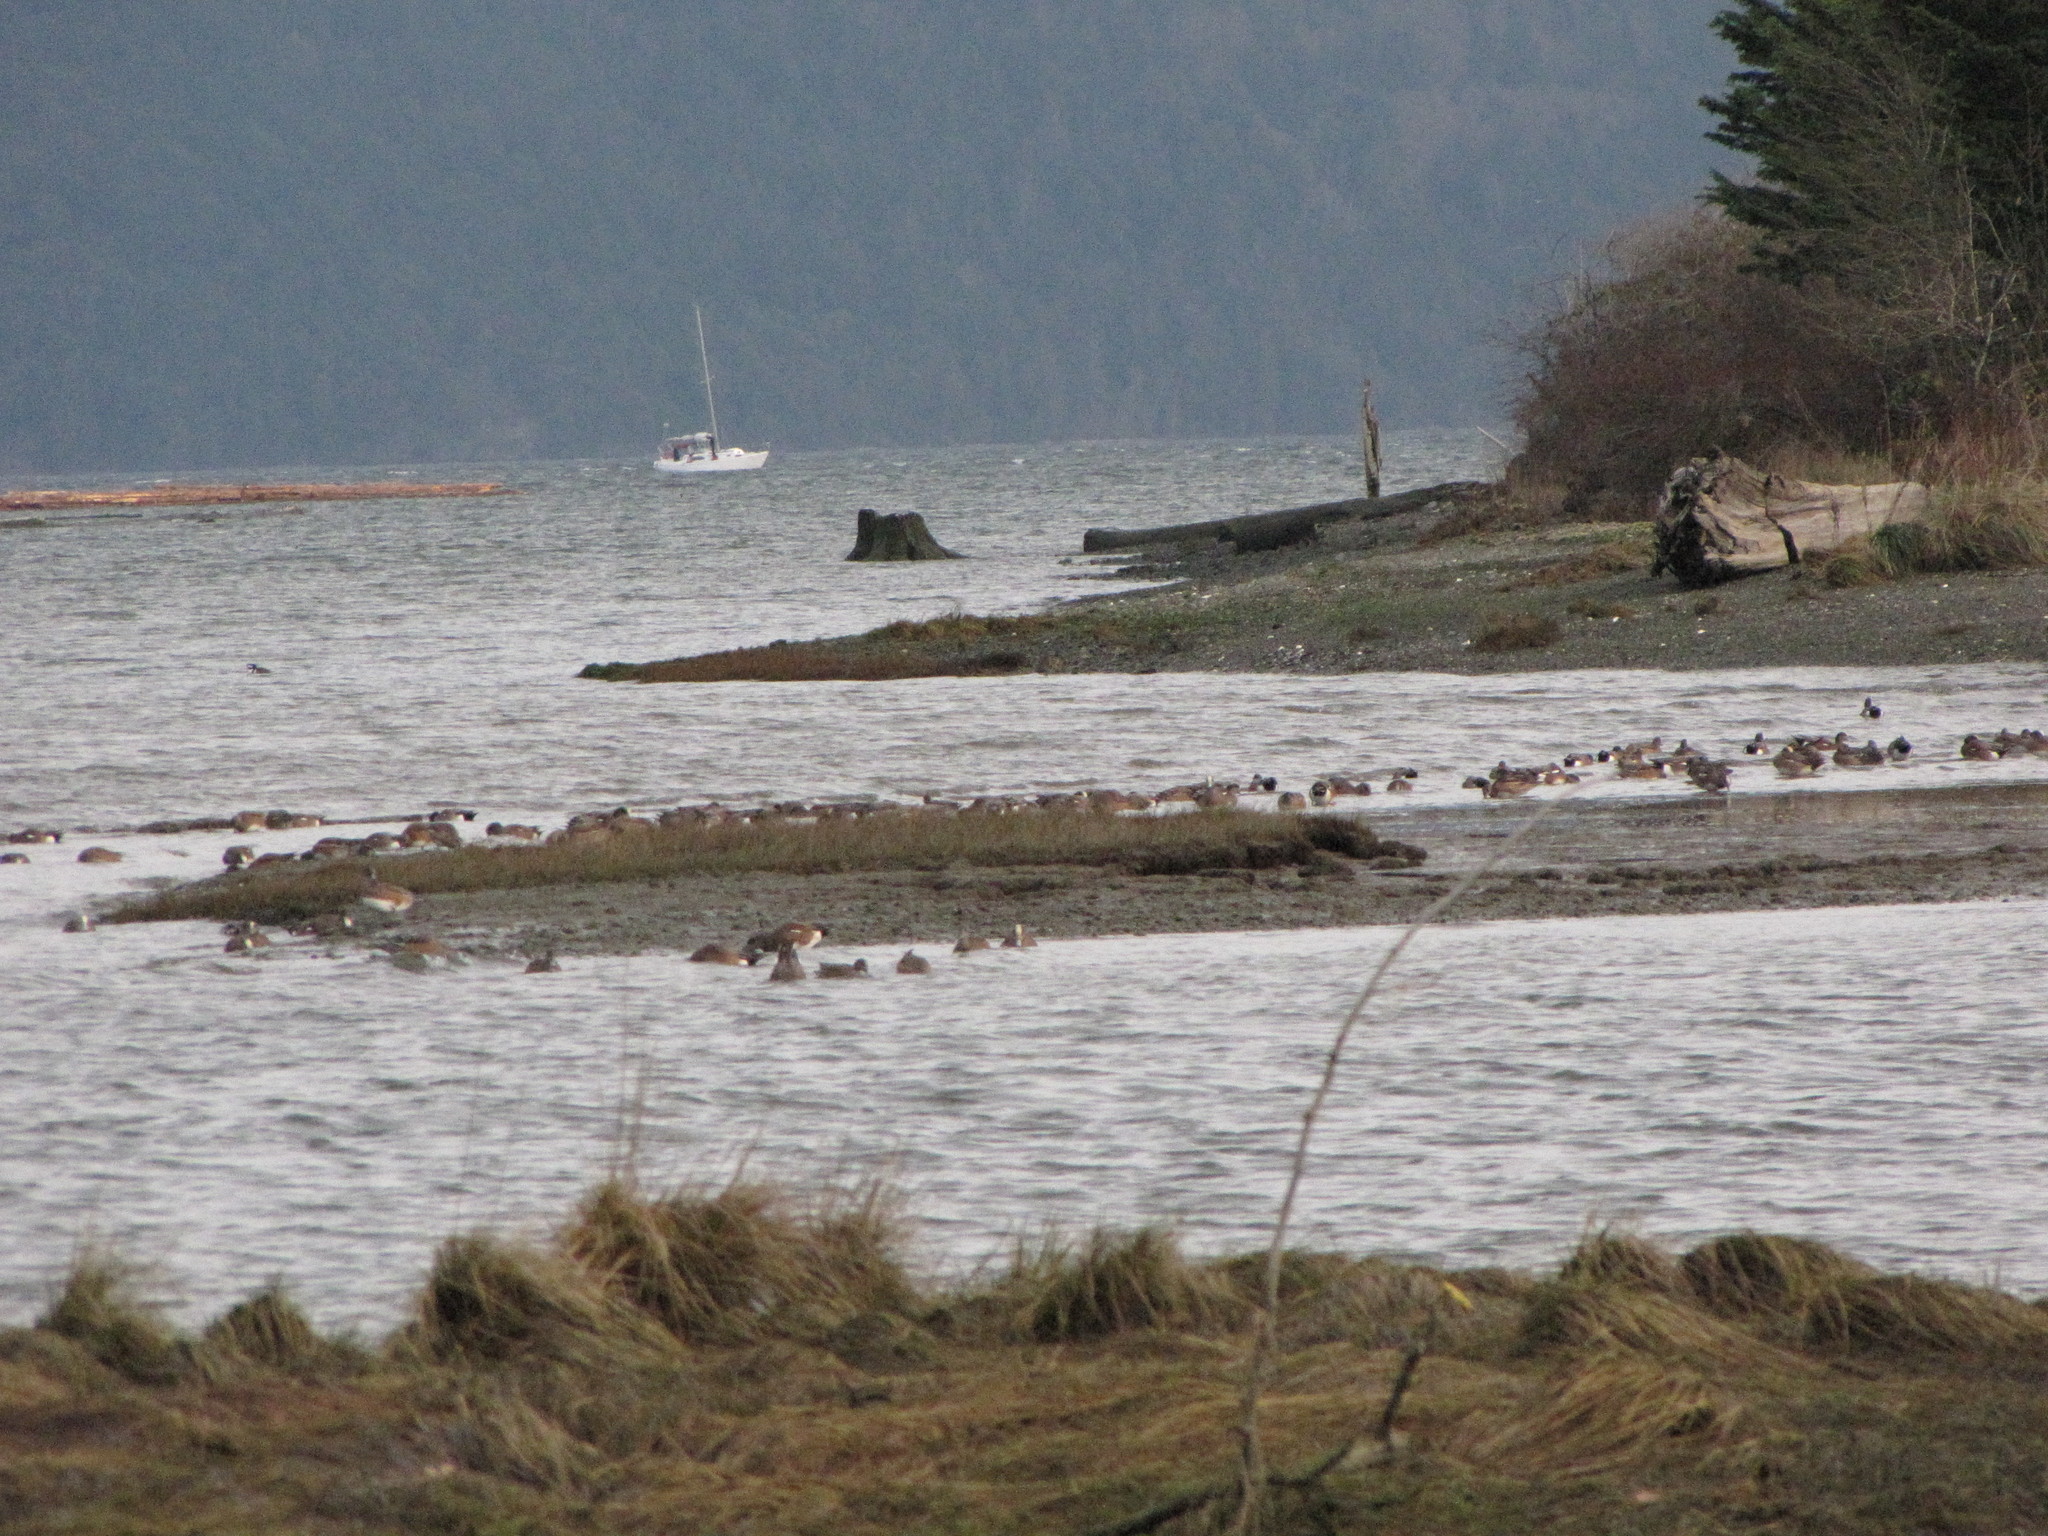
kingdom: Animalia
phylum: Chordata
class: Aves
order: Anseriformes
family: Anatidae
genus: Mareca
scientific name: Mareca americana
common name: American wigeon
